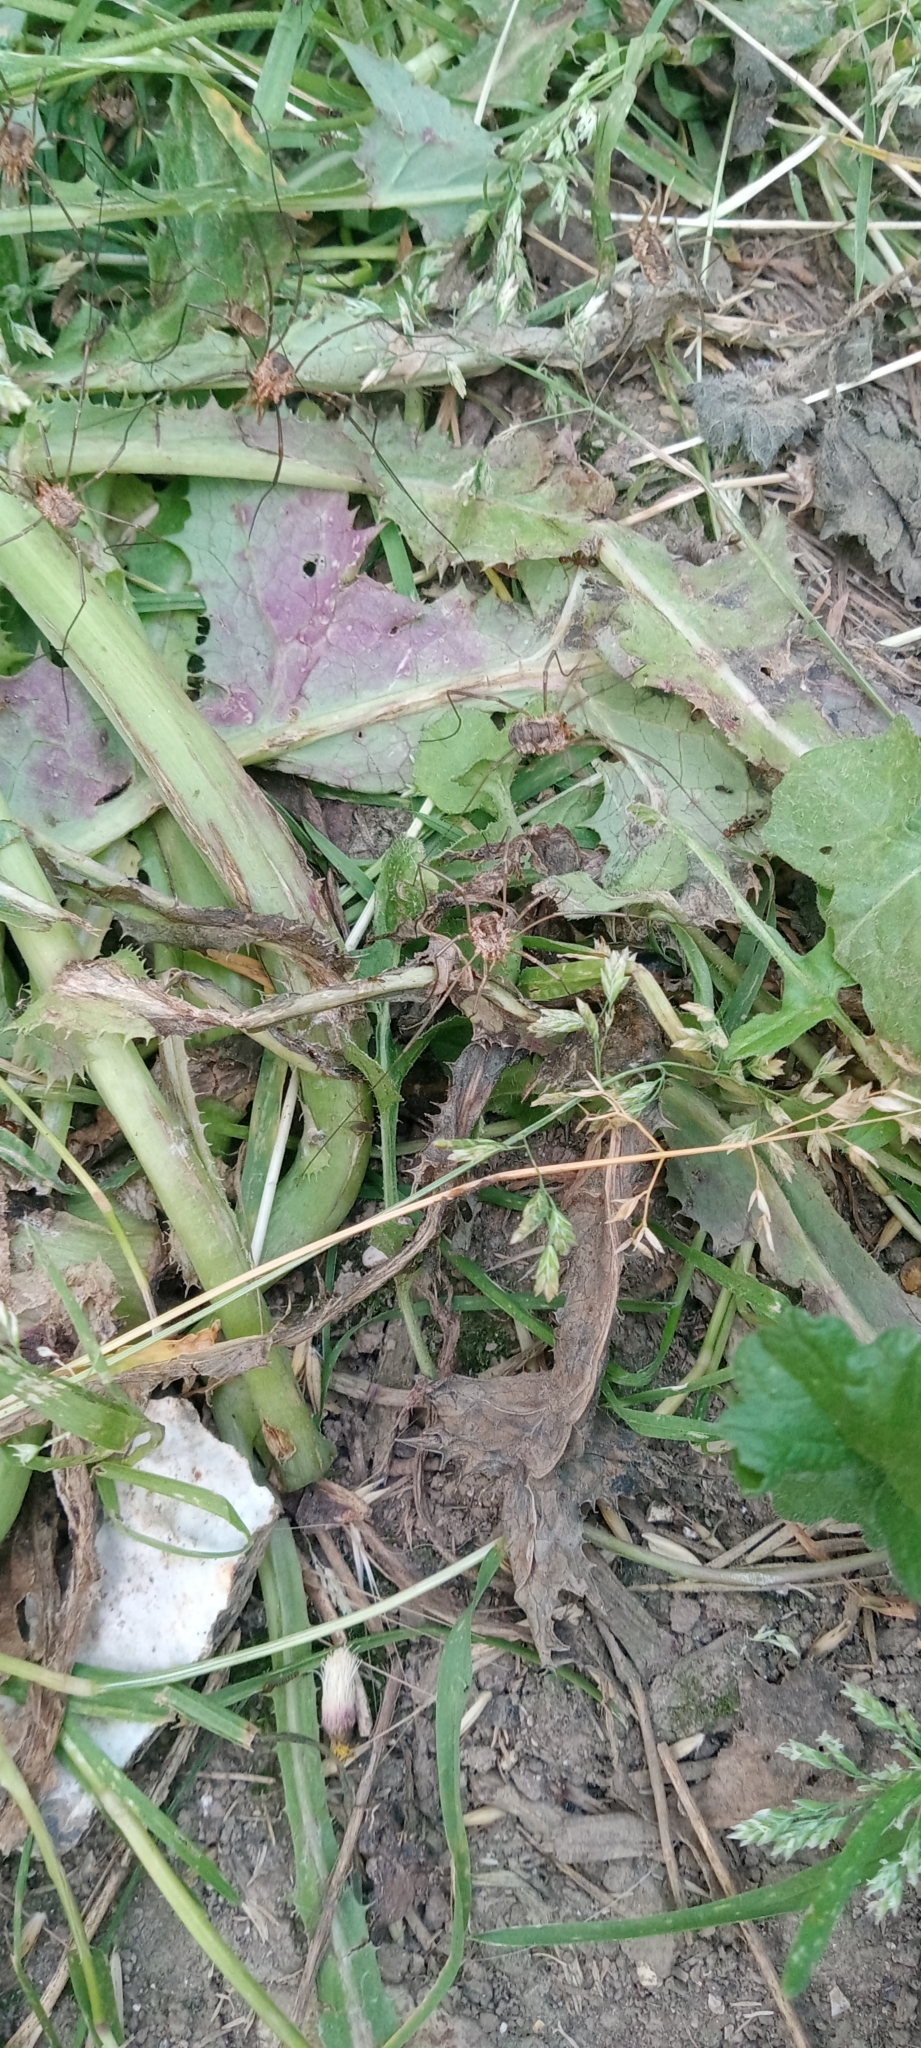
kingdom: Animalia
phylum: Arthropoda
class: Arachnida
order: Opiliones
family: Phalangiidae
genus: Phalangium
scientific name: Phalangium opilio
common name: Daddy longleg
